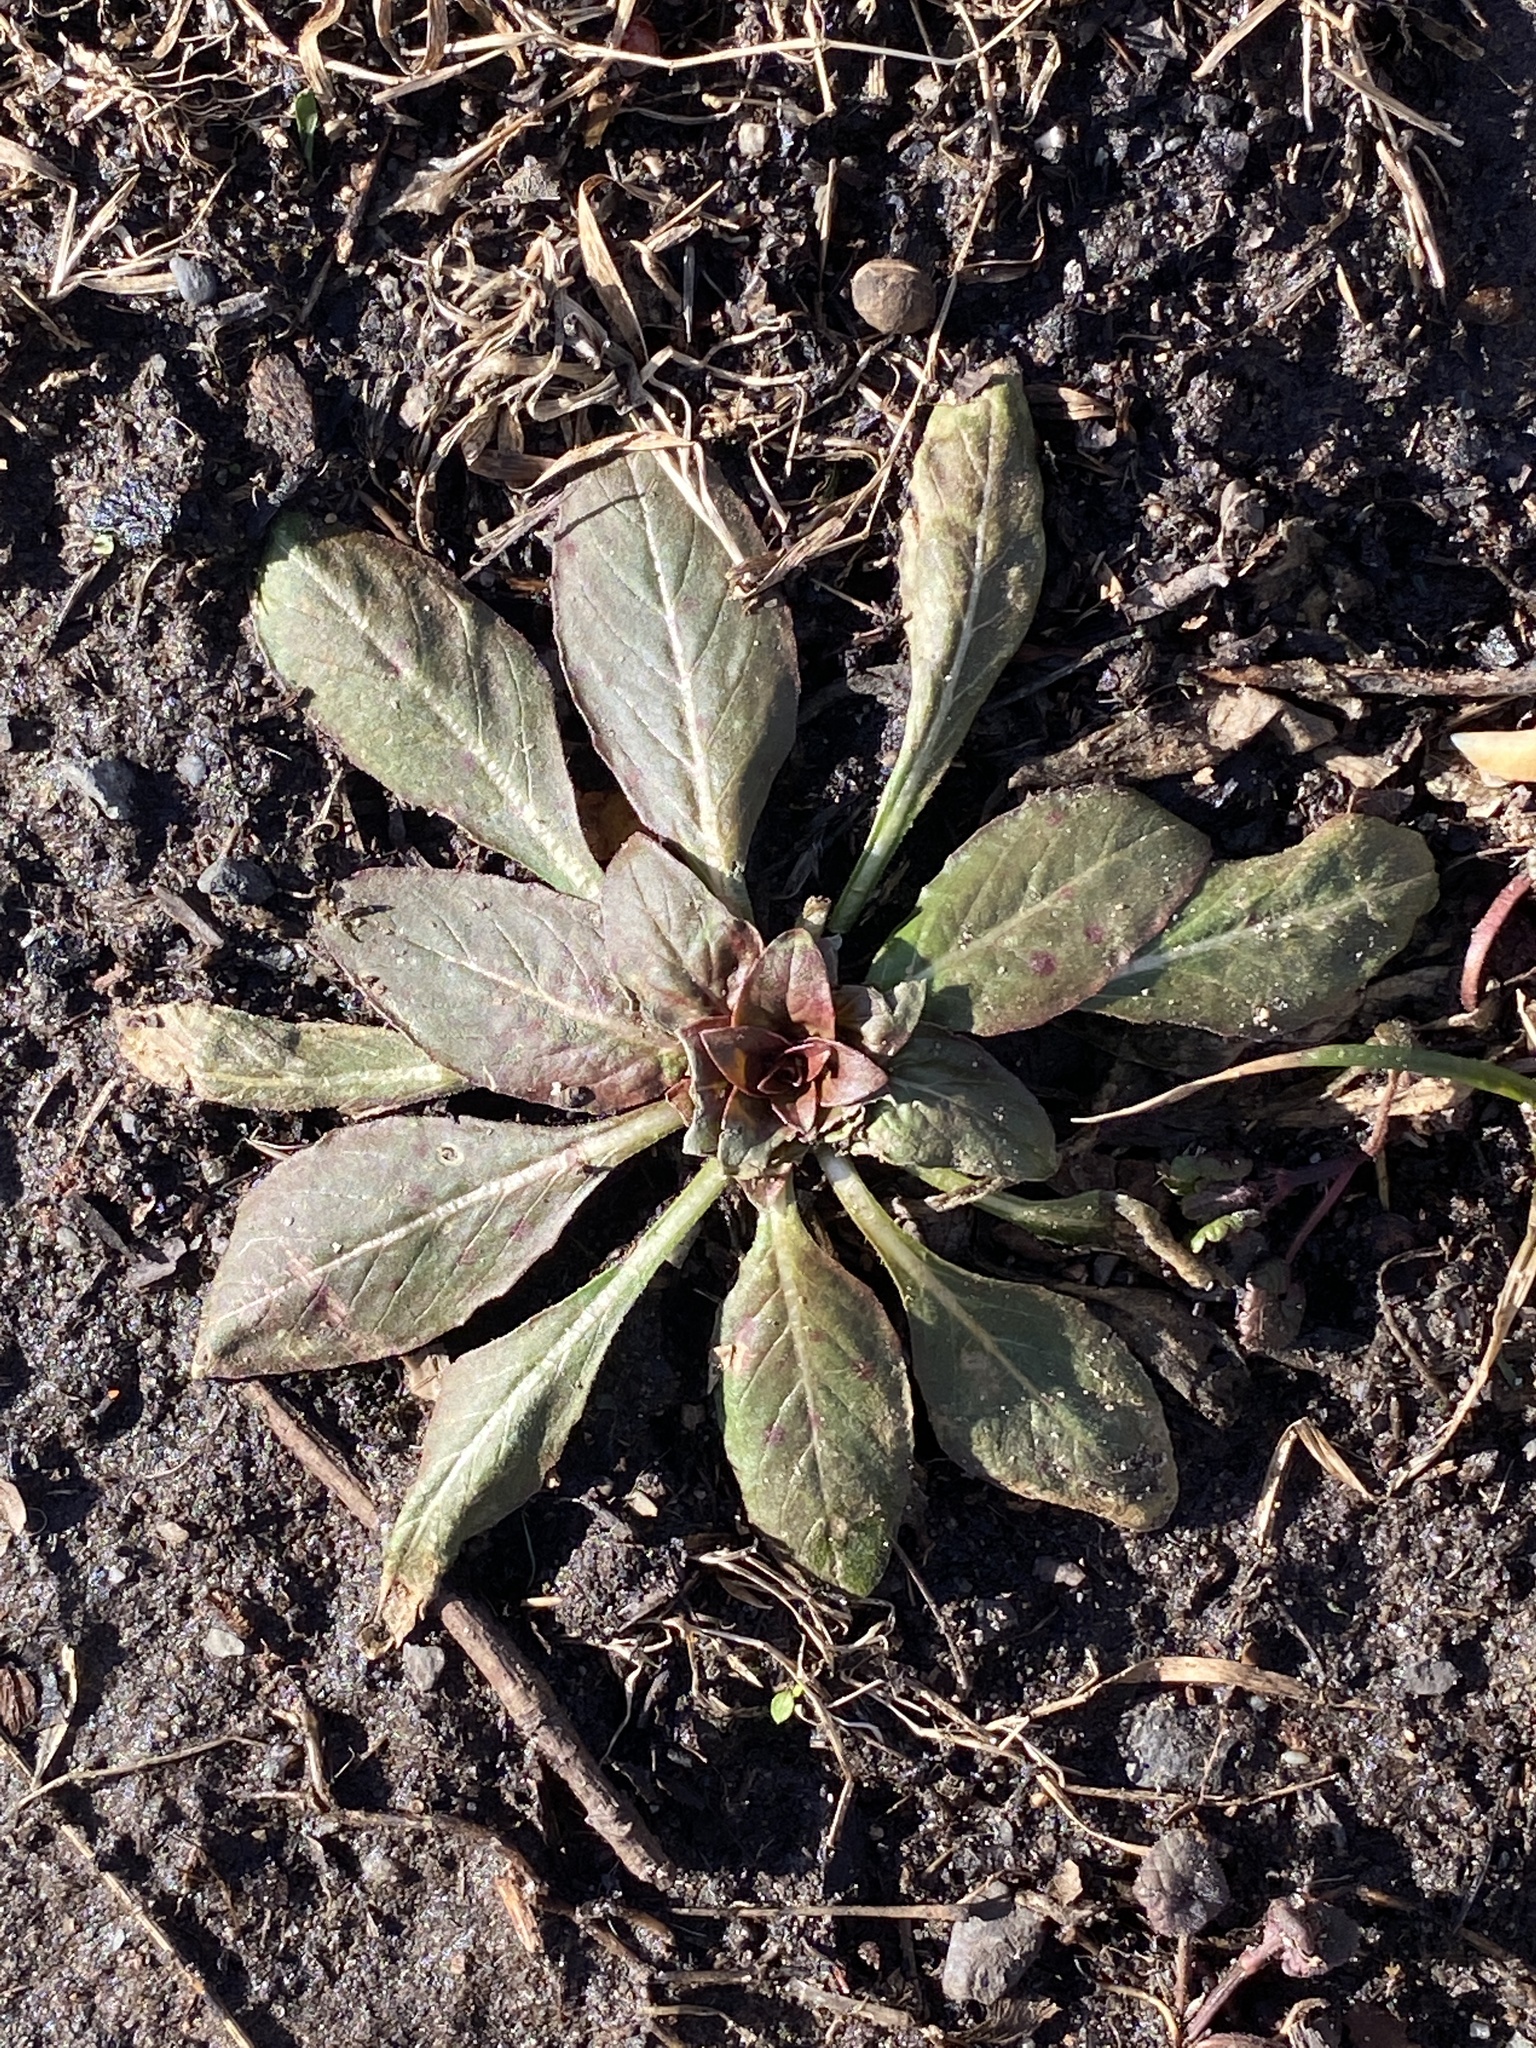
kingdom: Plantae
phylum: Tracheophyta
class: Magnoliopsida
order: Myrtales
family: Onagraceae
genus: Oenothera
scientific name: Oenothera
